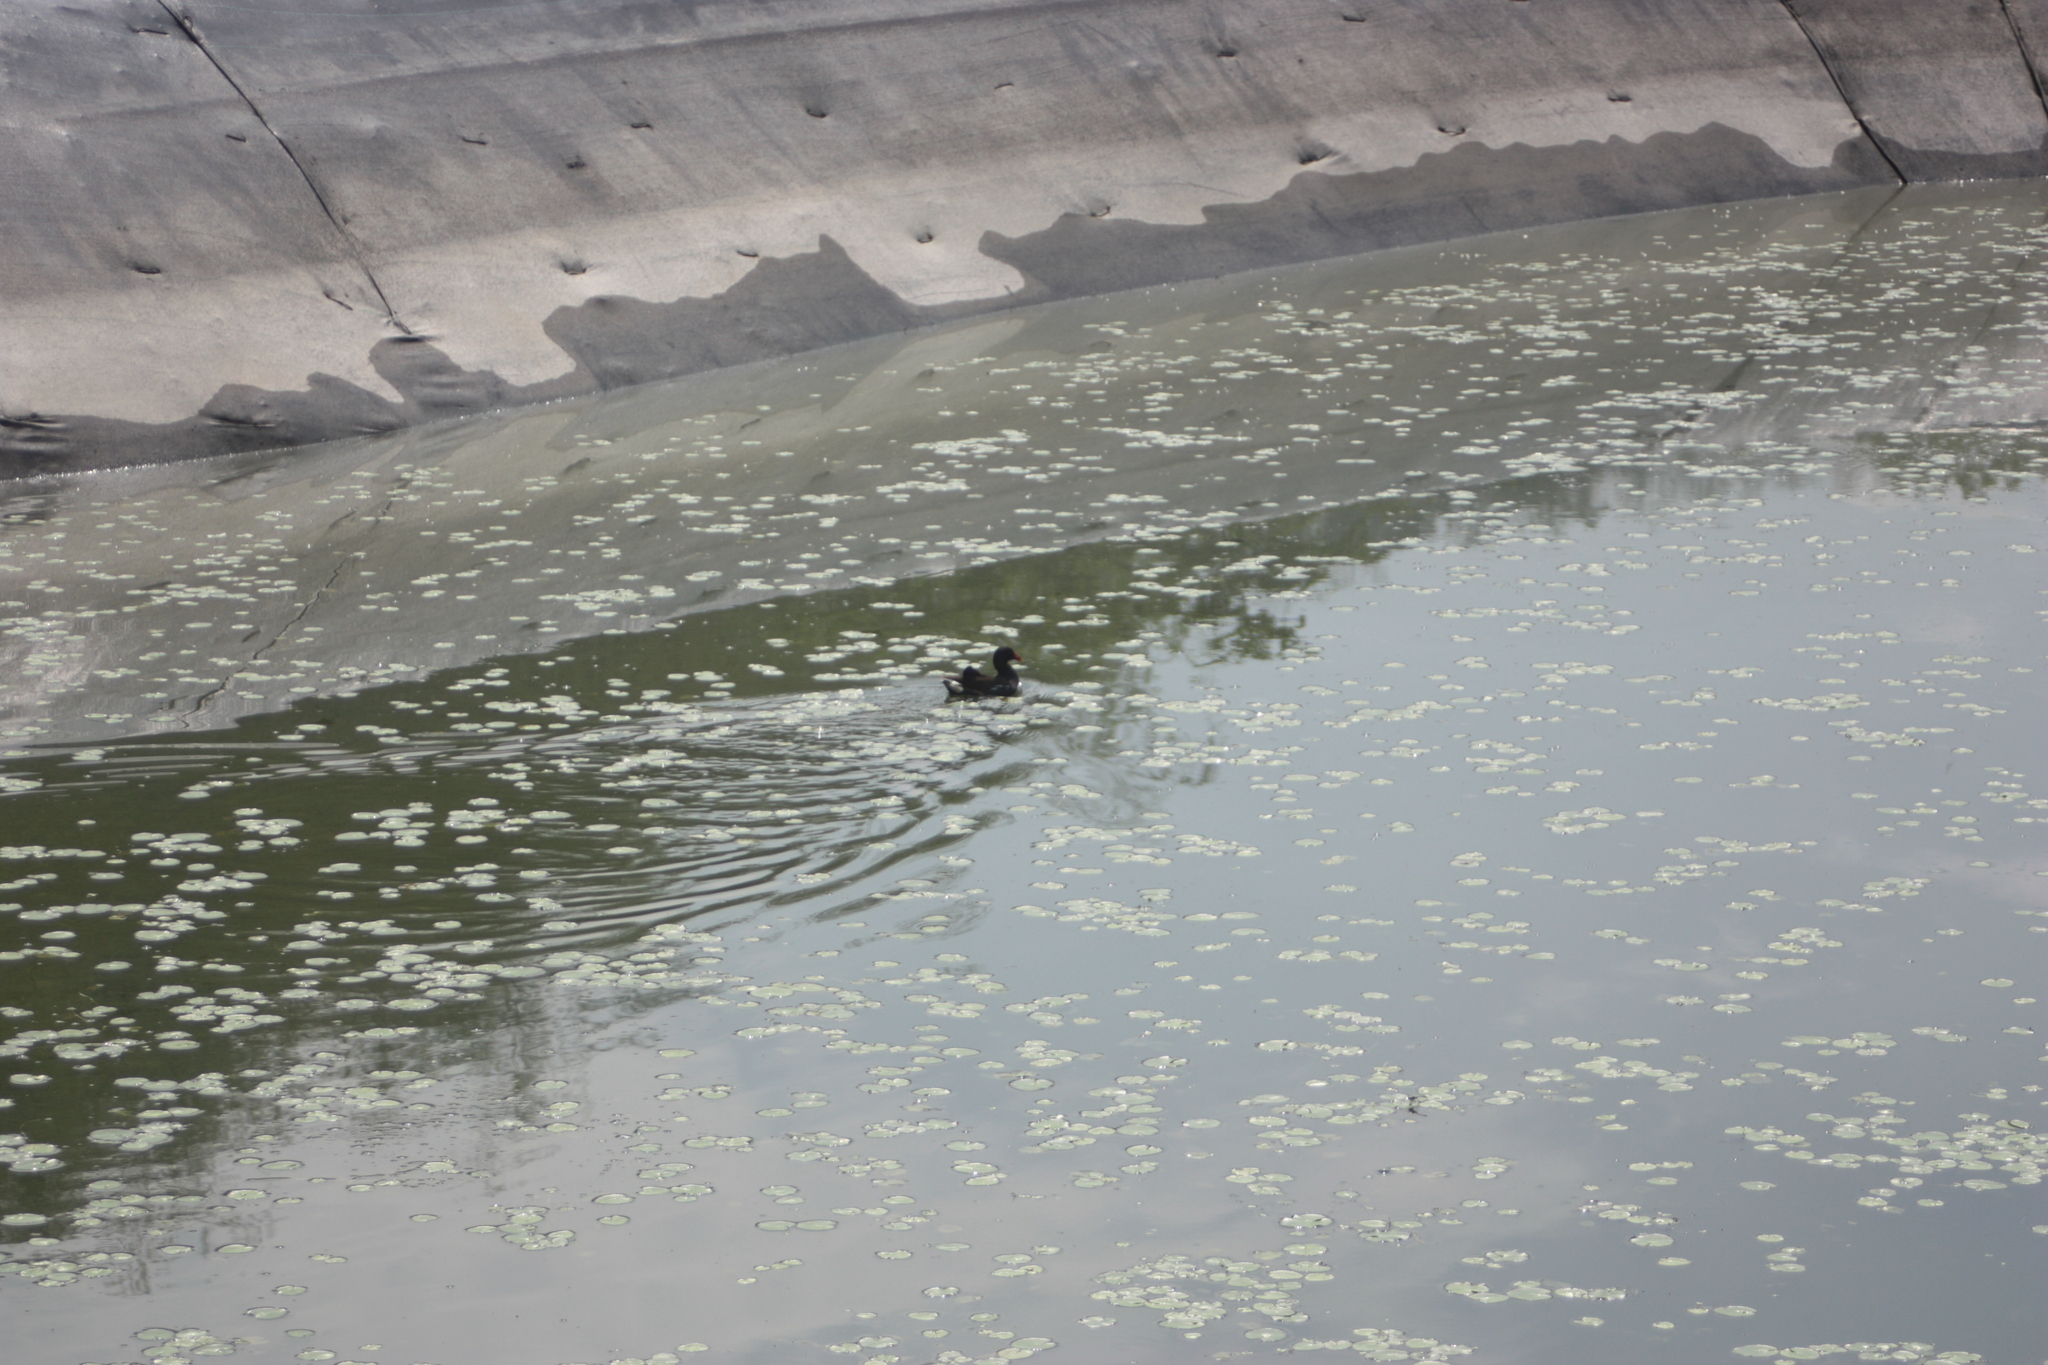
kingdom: Animalia
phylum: Chordata
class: Aves
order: Gruiformes
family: Rallidae
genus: Gallinula
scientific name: Gallinula chloropus
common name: Common moorhen
